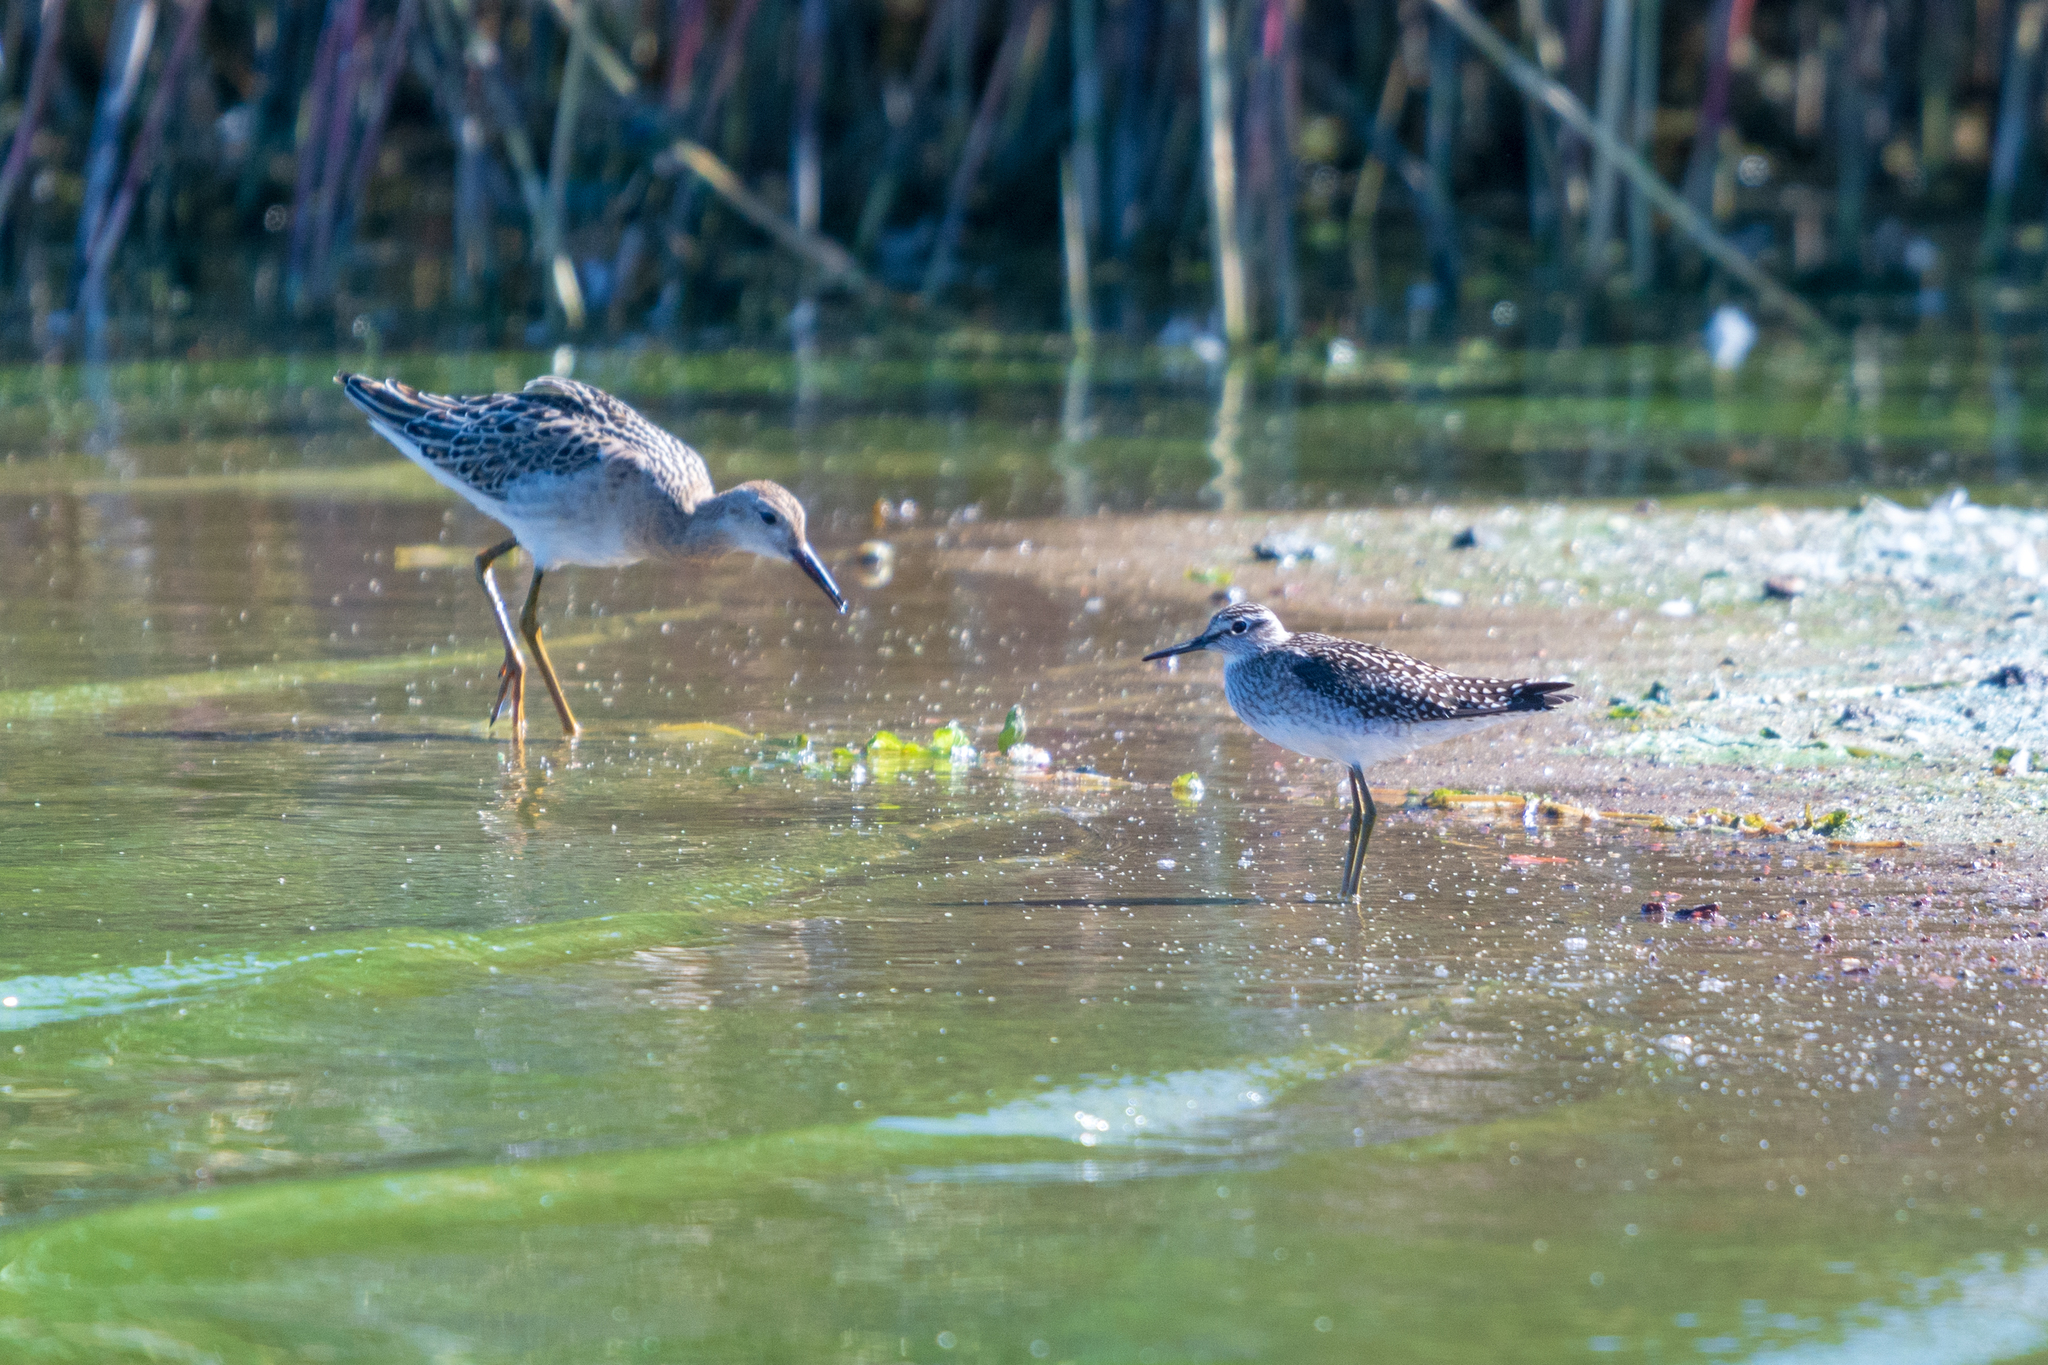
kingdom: Animalia
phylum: Chordata
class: Aves
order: Charadriiformes
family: Scolopacidae
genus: Tringa
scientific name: Tringa glareola
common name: Wood sandpiper
